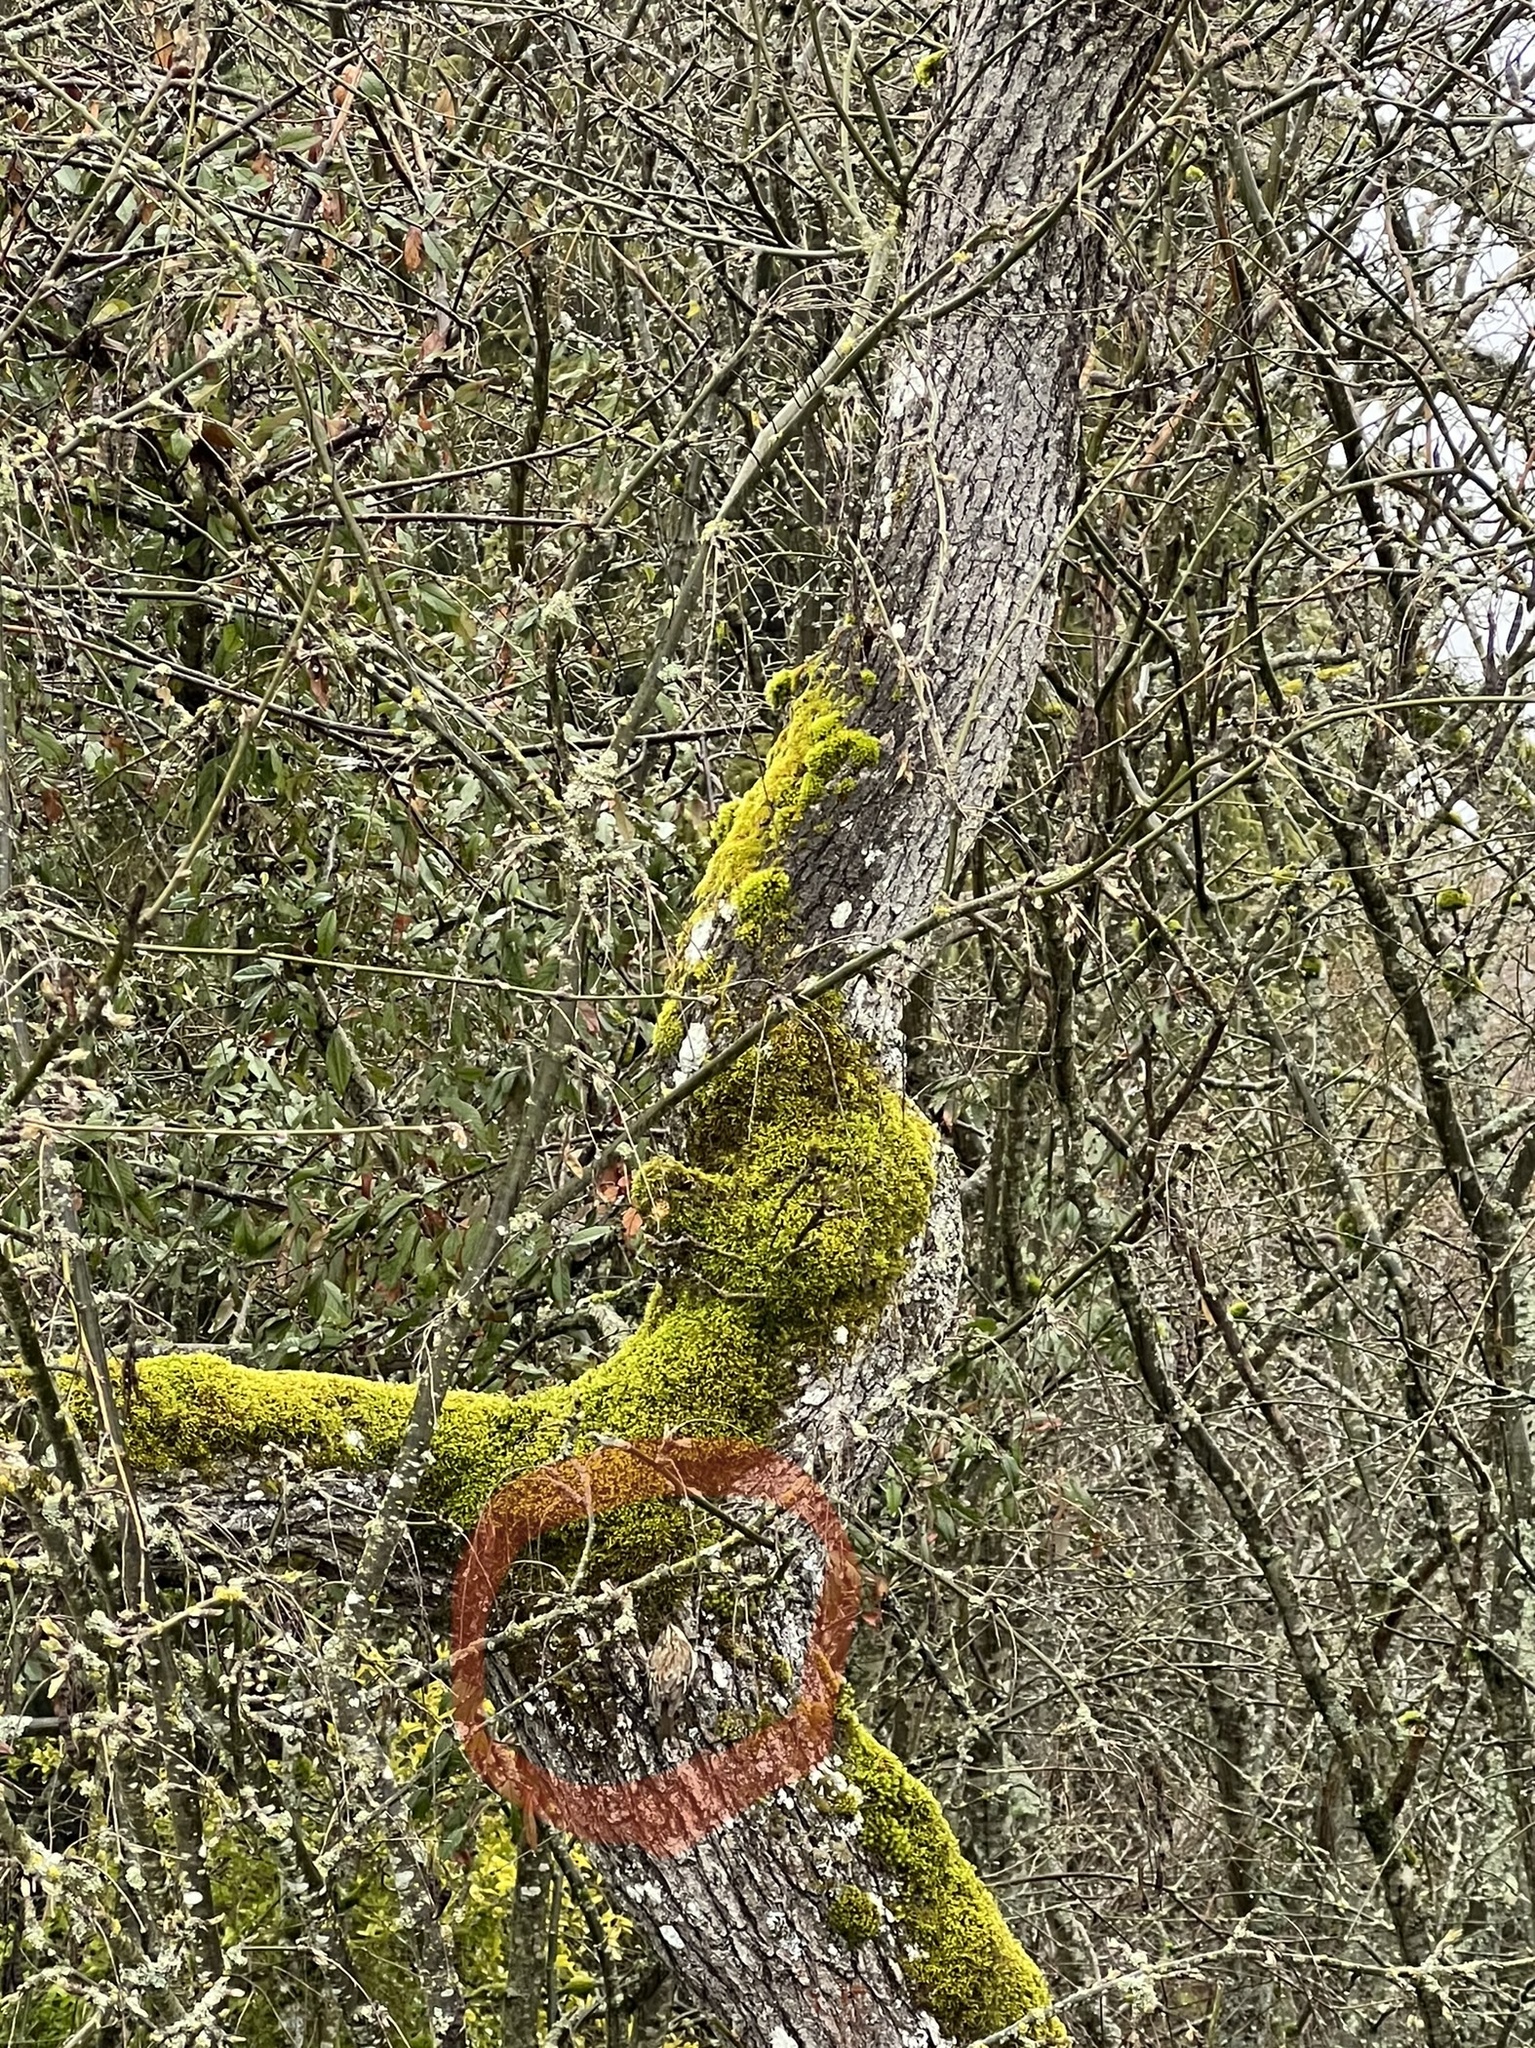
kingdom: Animalia
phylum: Chordata
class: Aves
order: Passeriformes
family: Certhiidae
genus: Certhia
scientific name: Certhia americana
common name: Brown creeper
